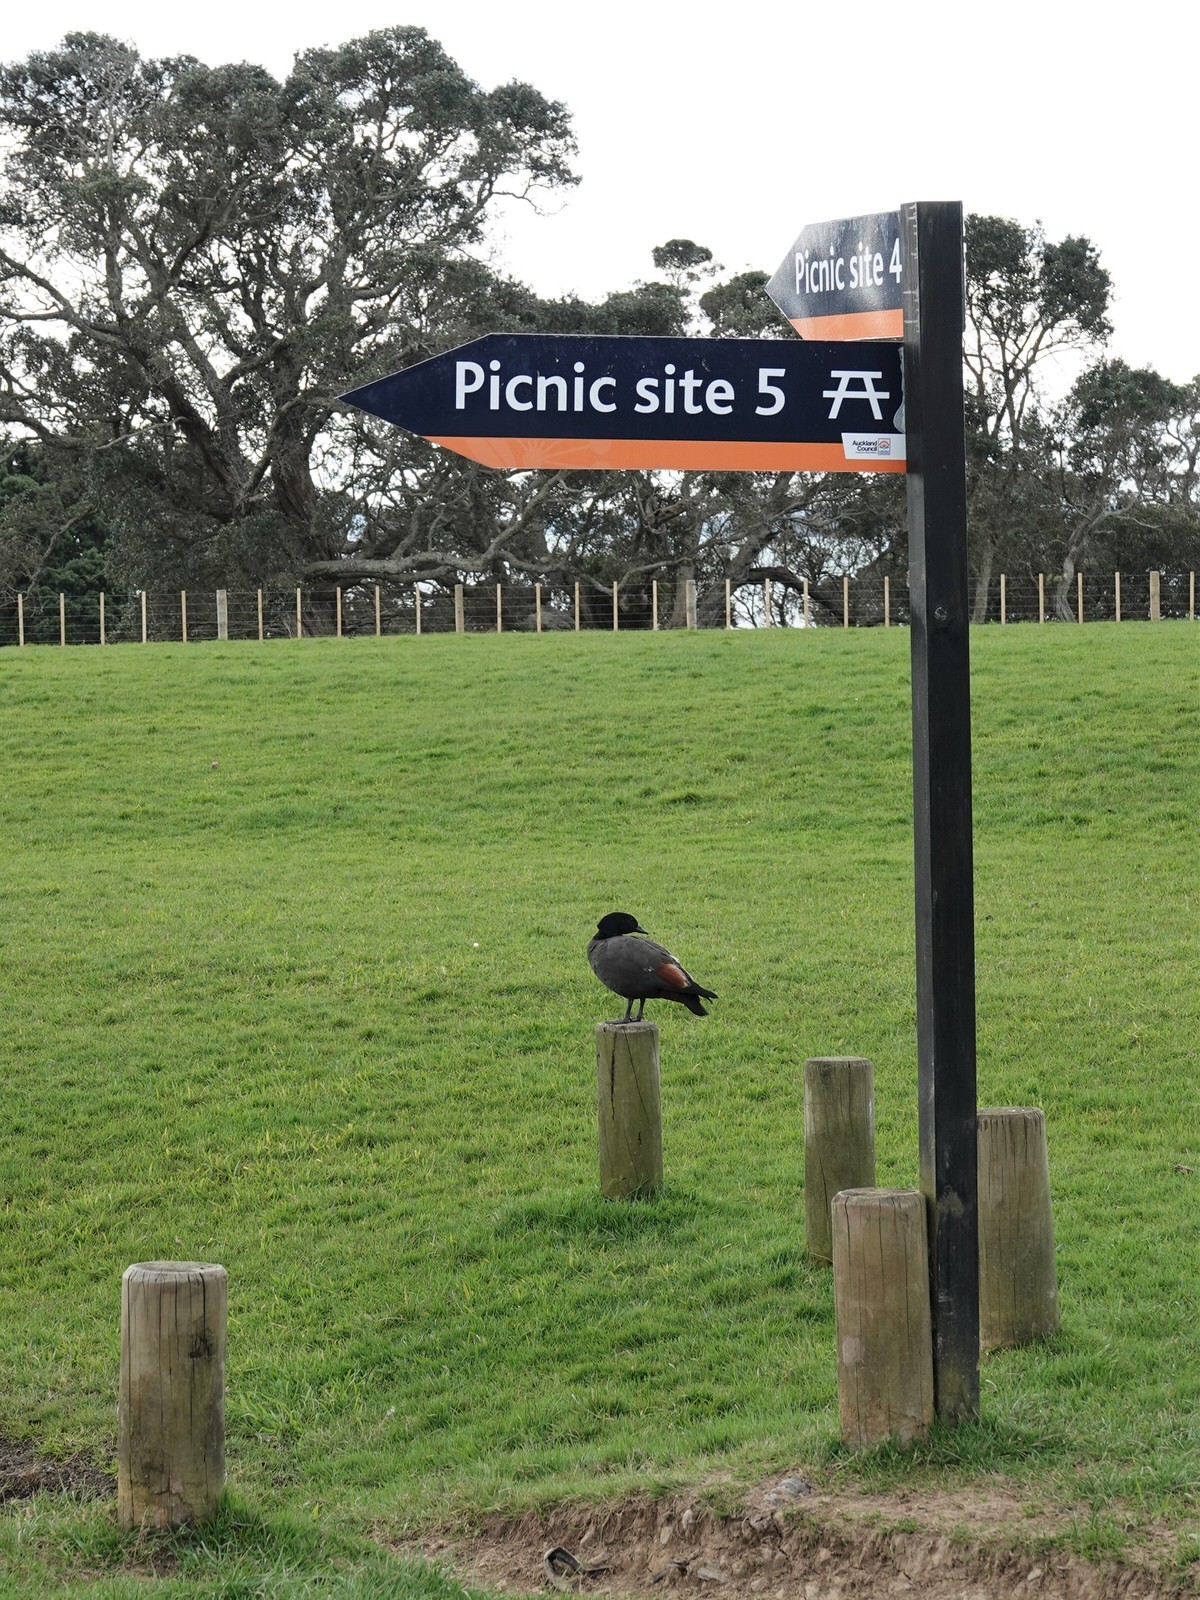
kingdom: Animalia
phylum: Chordata
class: Aves
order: Anseriformes
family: Anatidae
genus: Tadorna
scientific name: Tadorna variegata
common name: Paradise shelduck
